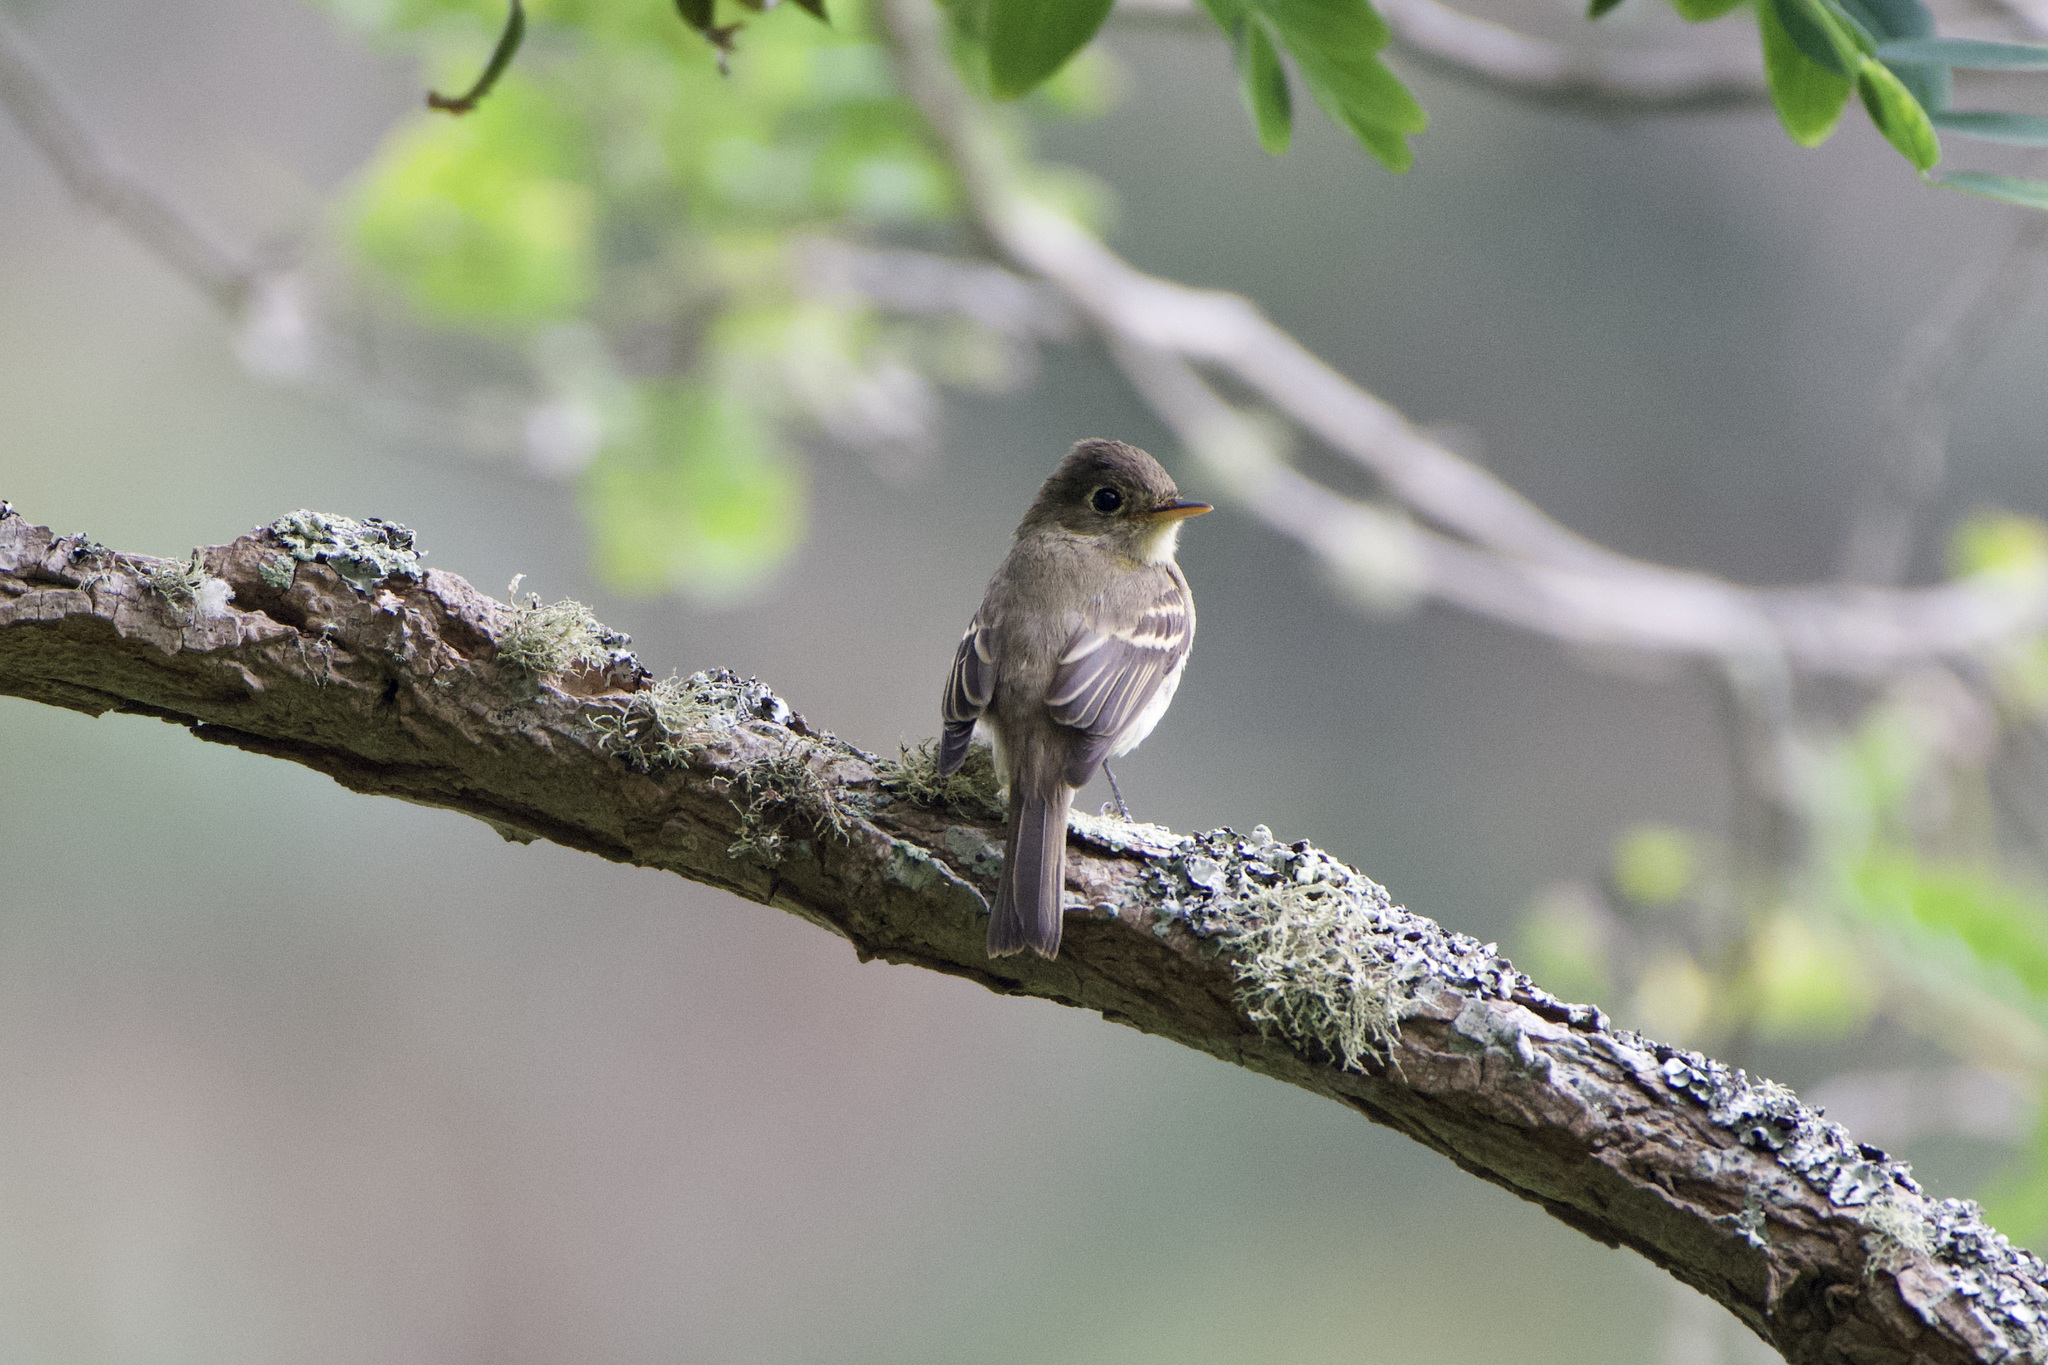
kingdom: Animalia
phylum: Chordata
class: Aves
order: Passeriformes
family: Tyrannidae
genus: Empidonax
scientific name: Empidonax difficilis
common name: Pacific-slope flycatcher
